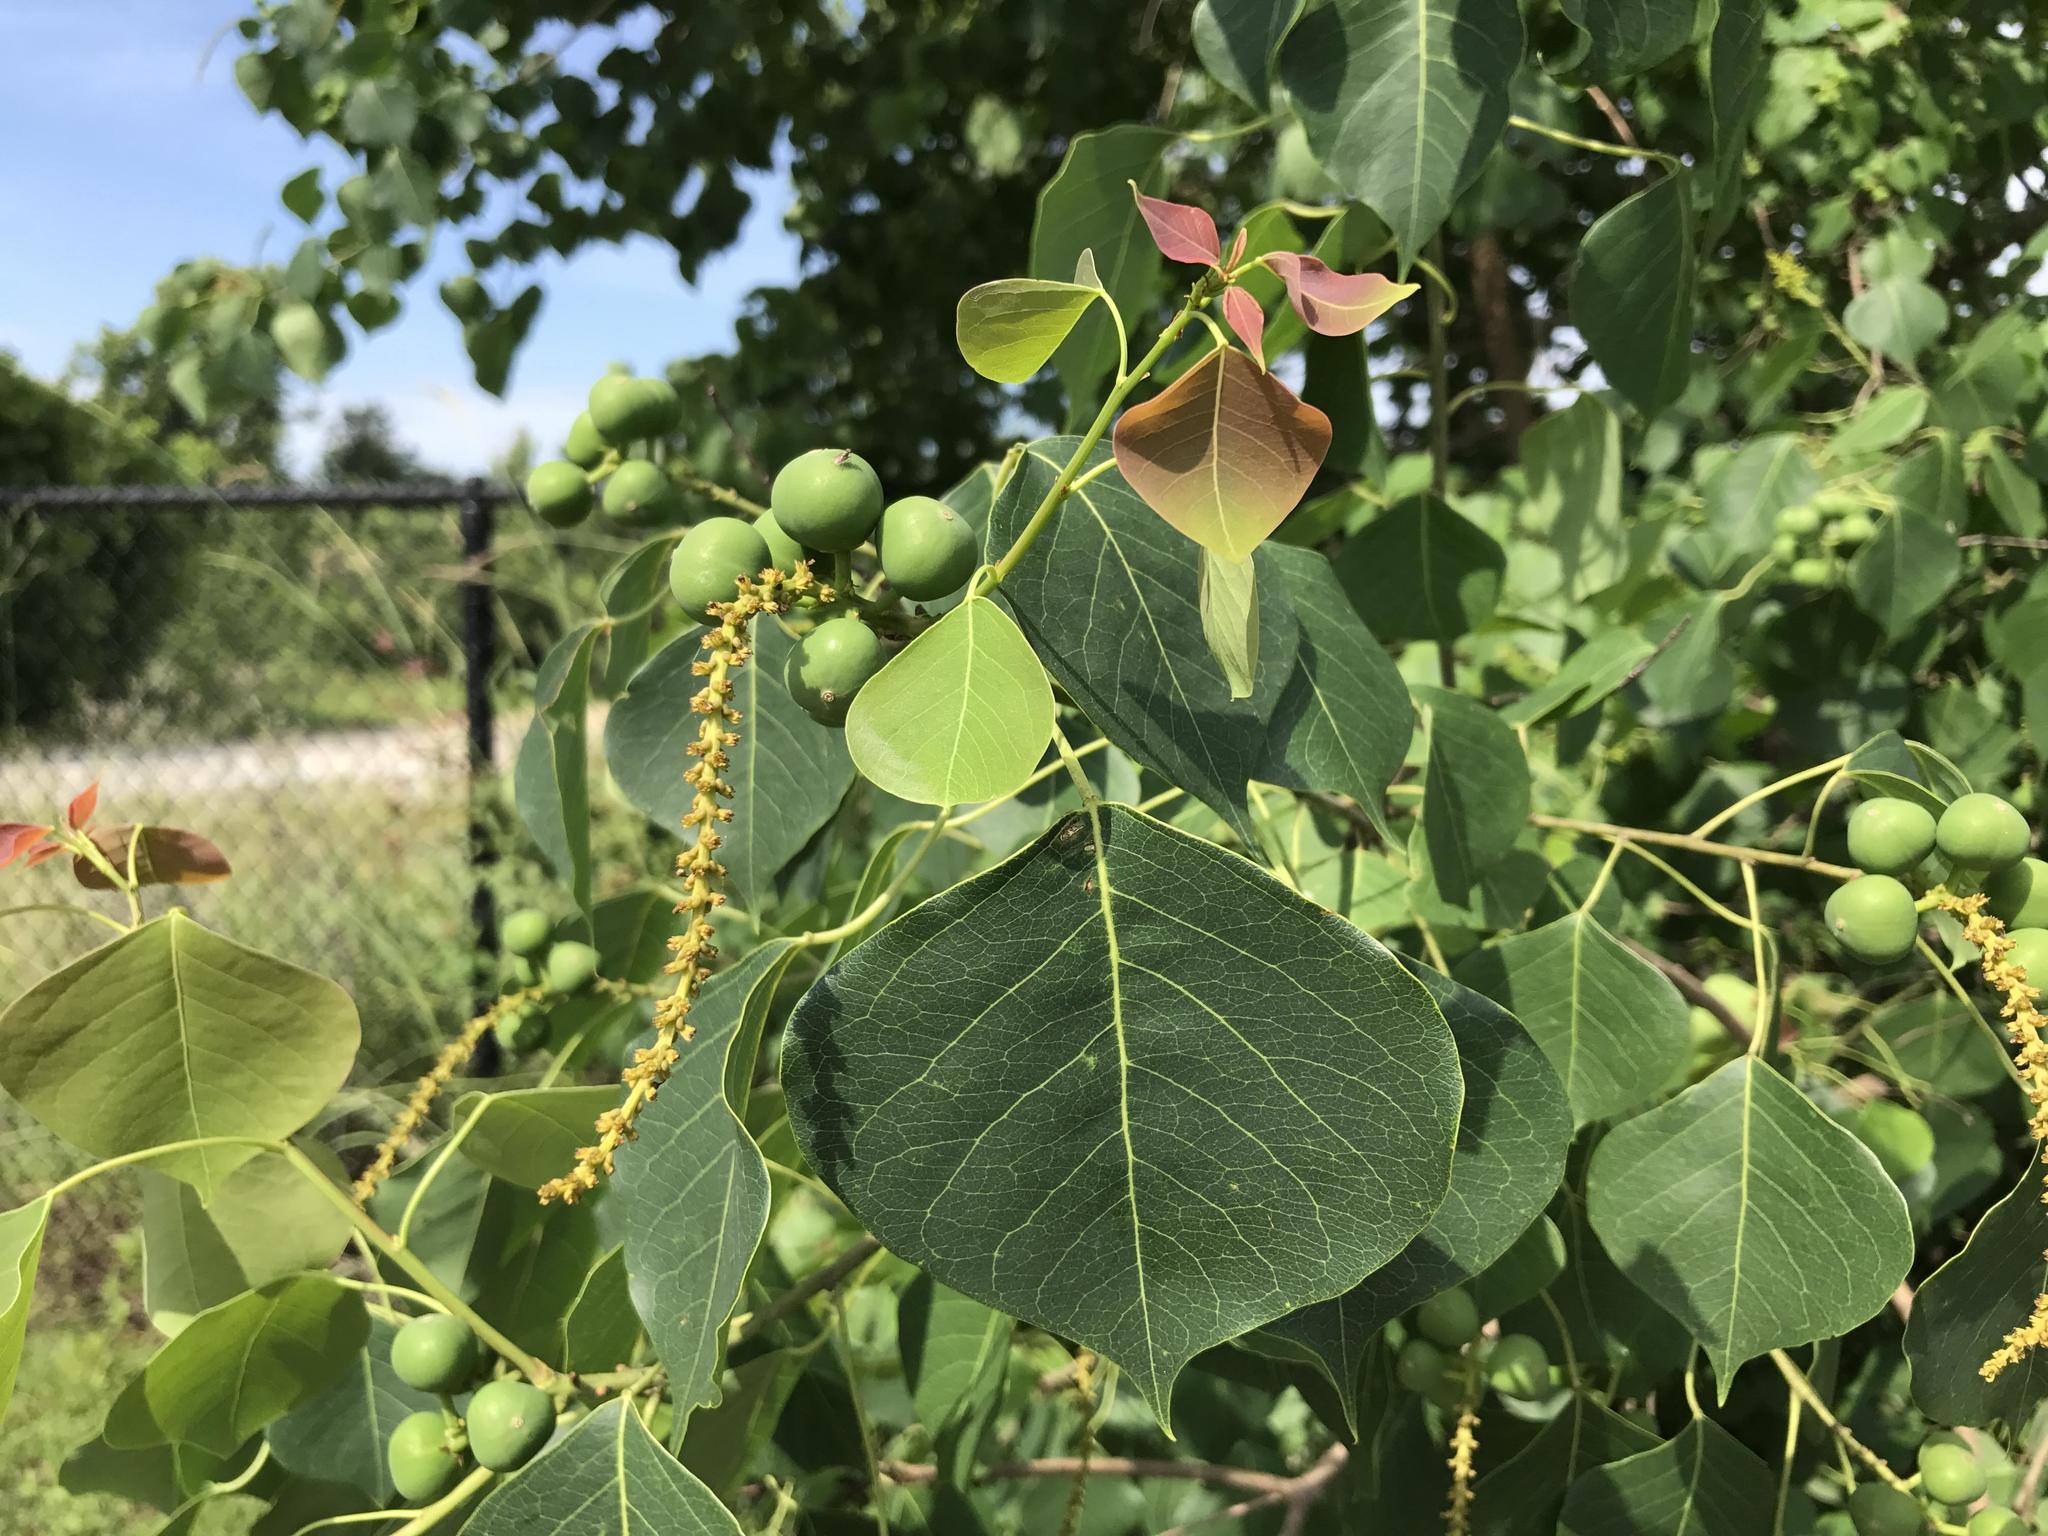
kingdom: Plantae
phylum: Tracheophyta
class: Magnoliopsida
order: Malpighiales
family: Euphorbiaceae
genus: Triadica
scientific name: Triadica sebifera
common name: Chinese tallow
